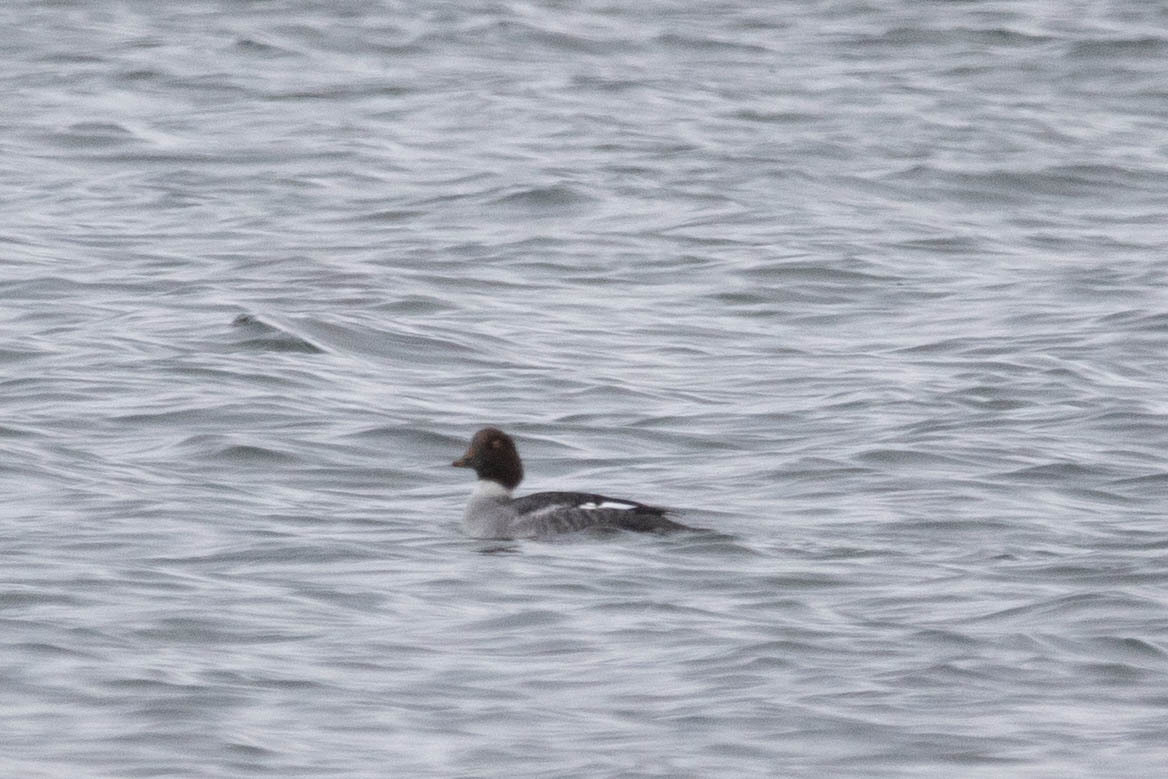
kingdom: Animalia
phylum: Chordata
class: Aves
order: Anseriformes
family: Anatidae
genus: Bucephala
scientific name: Bucephala clangula
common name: Common goldeneye
